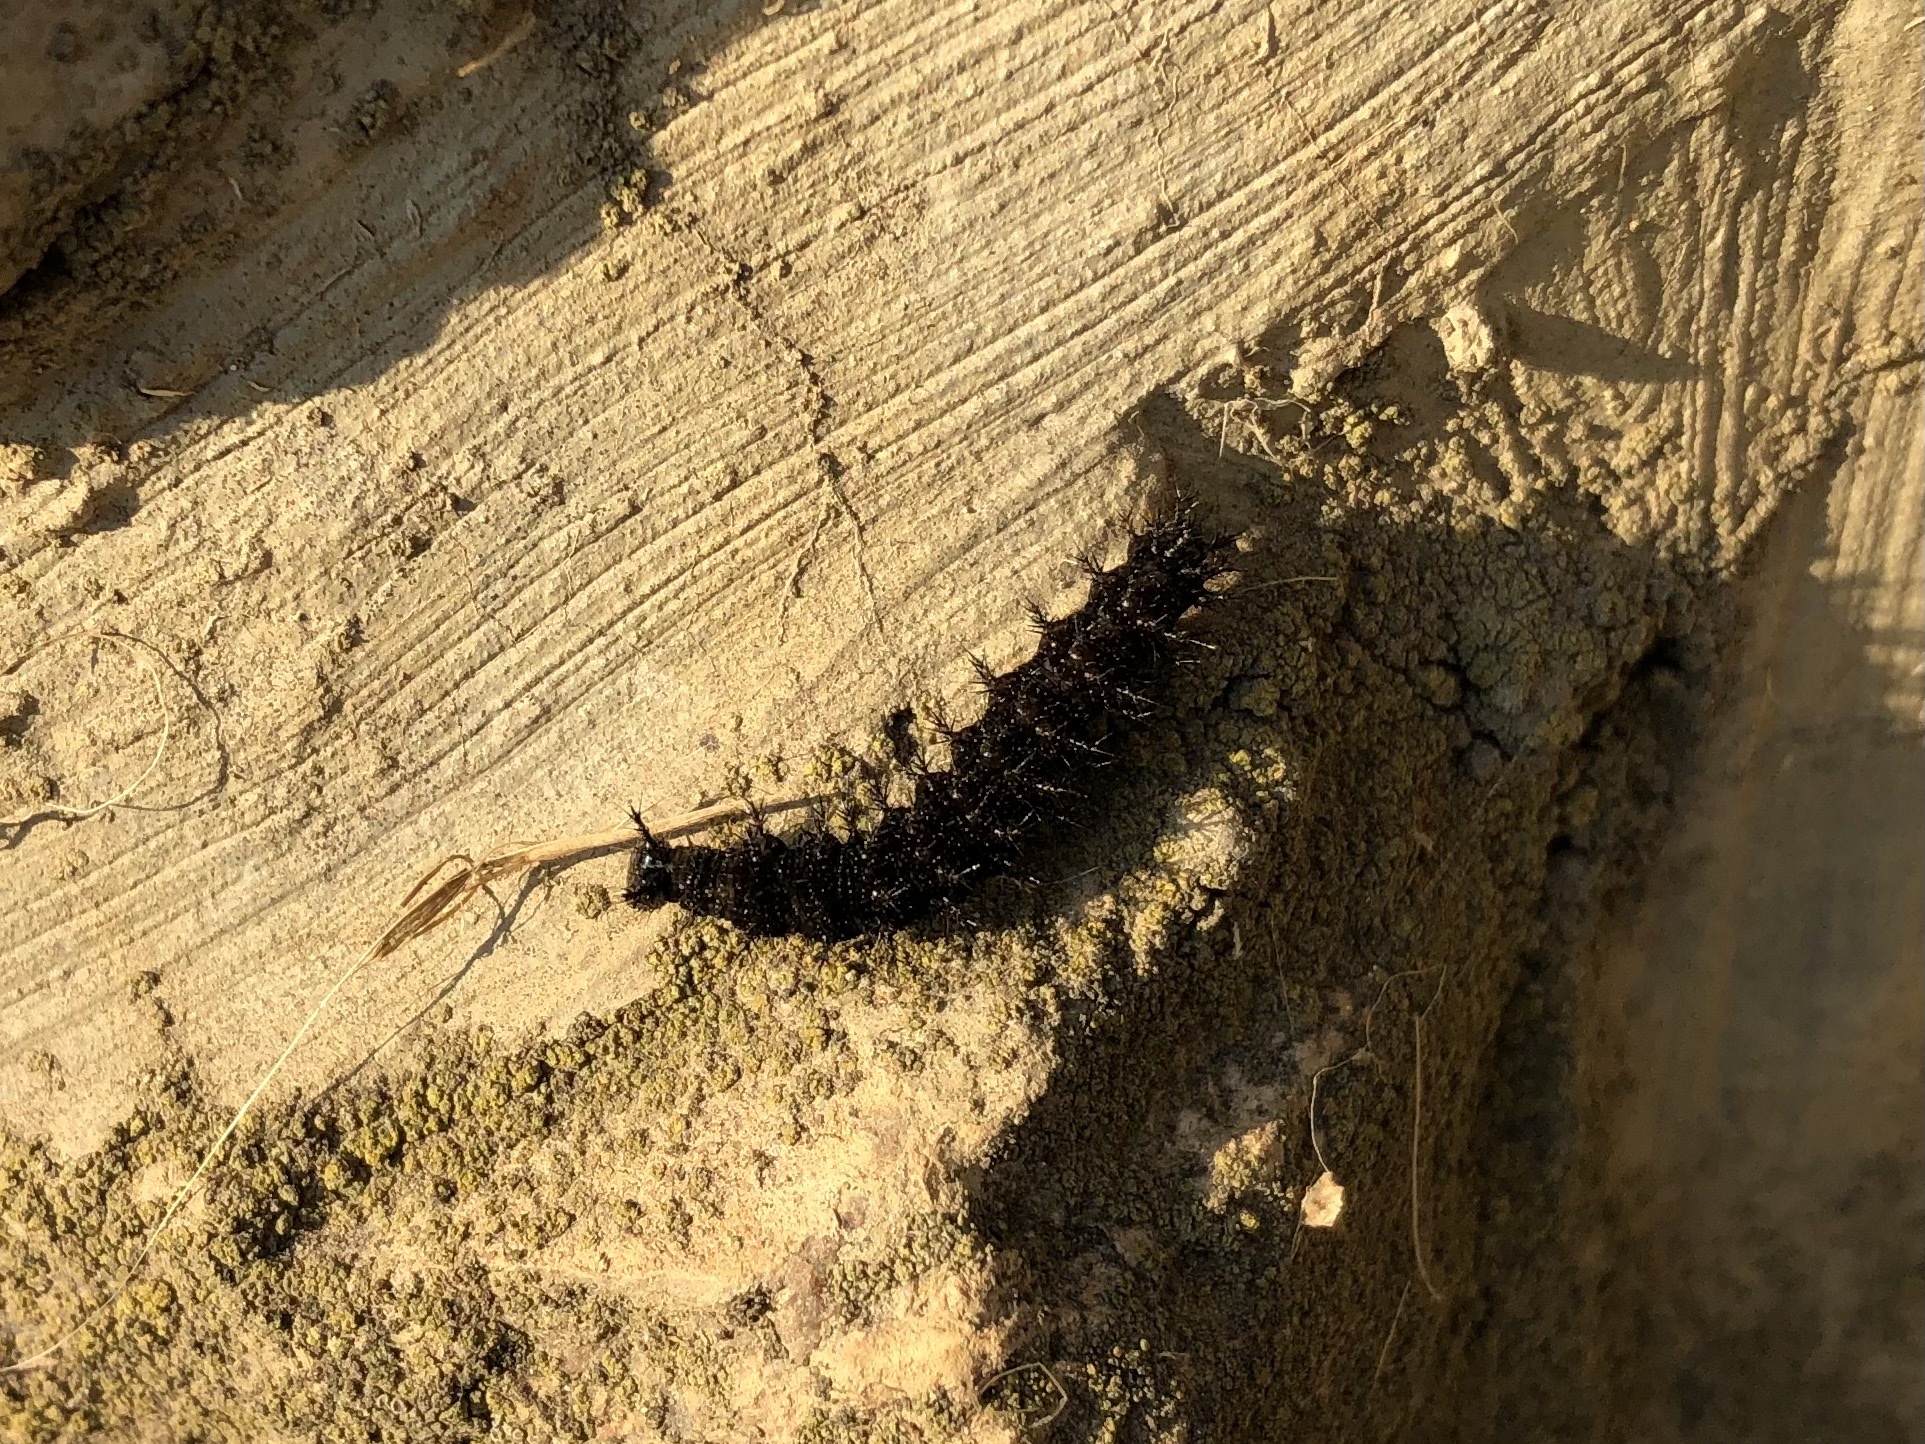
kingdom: Animalia
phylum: Arthropoda
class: Insecta
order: Lepidoptera
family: Nymphalidae
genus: Araschnia
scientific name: Araschnia levana
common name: Map butterfly
